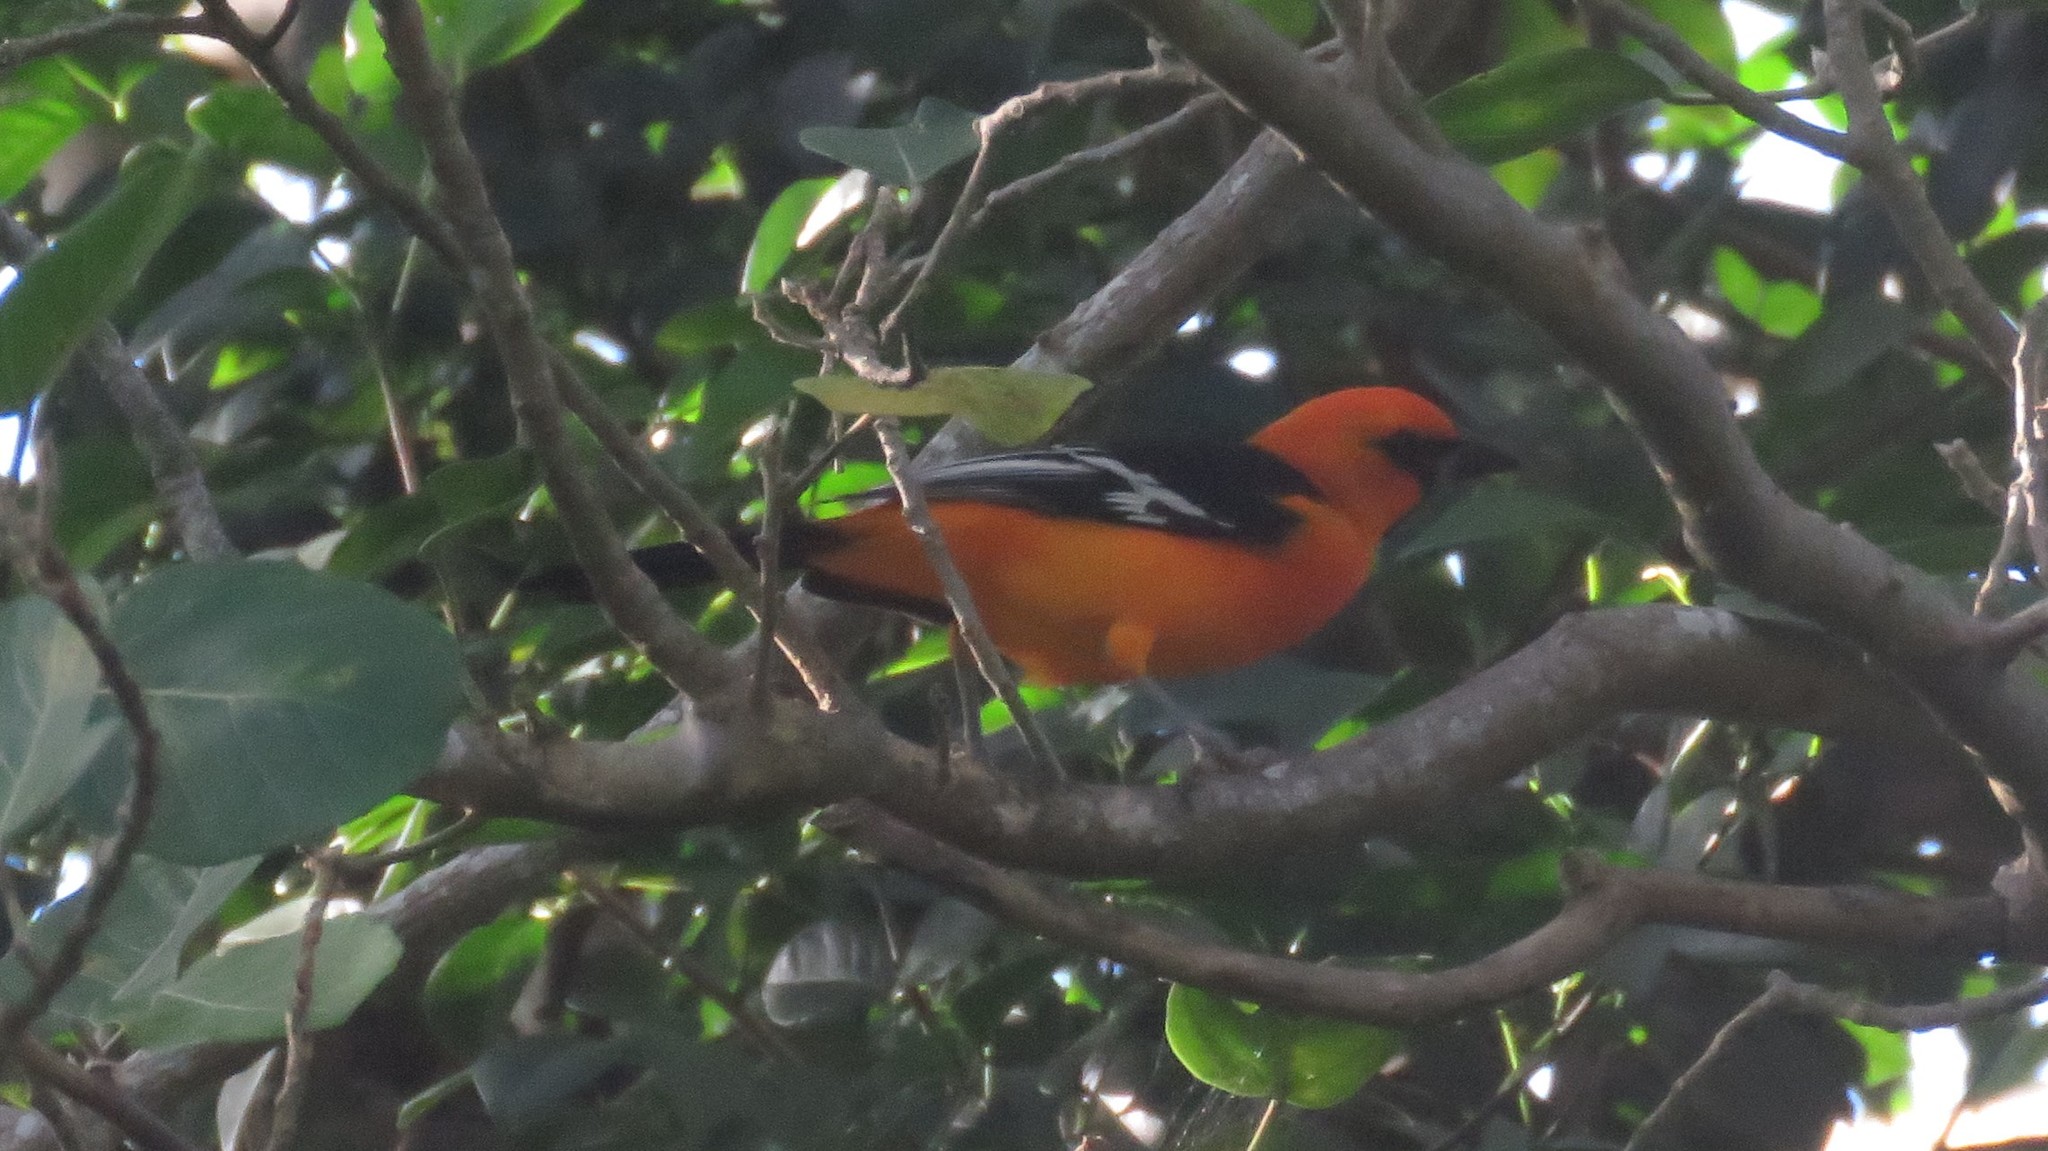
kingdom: Animalia
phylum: Chordata
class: Aves
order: Passeriformes
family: Icteridae
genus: Icterus
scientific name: Icterus gularis
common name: Altamira oriole
